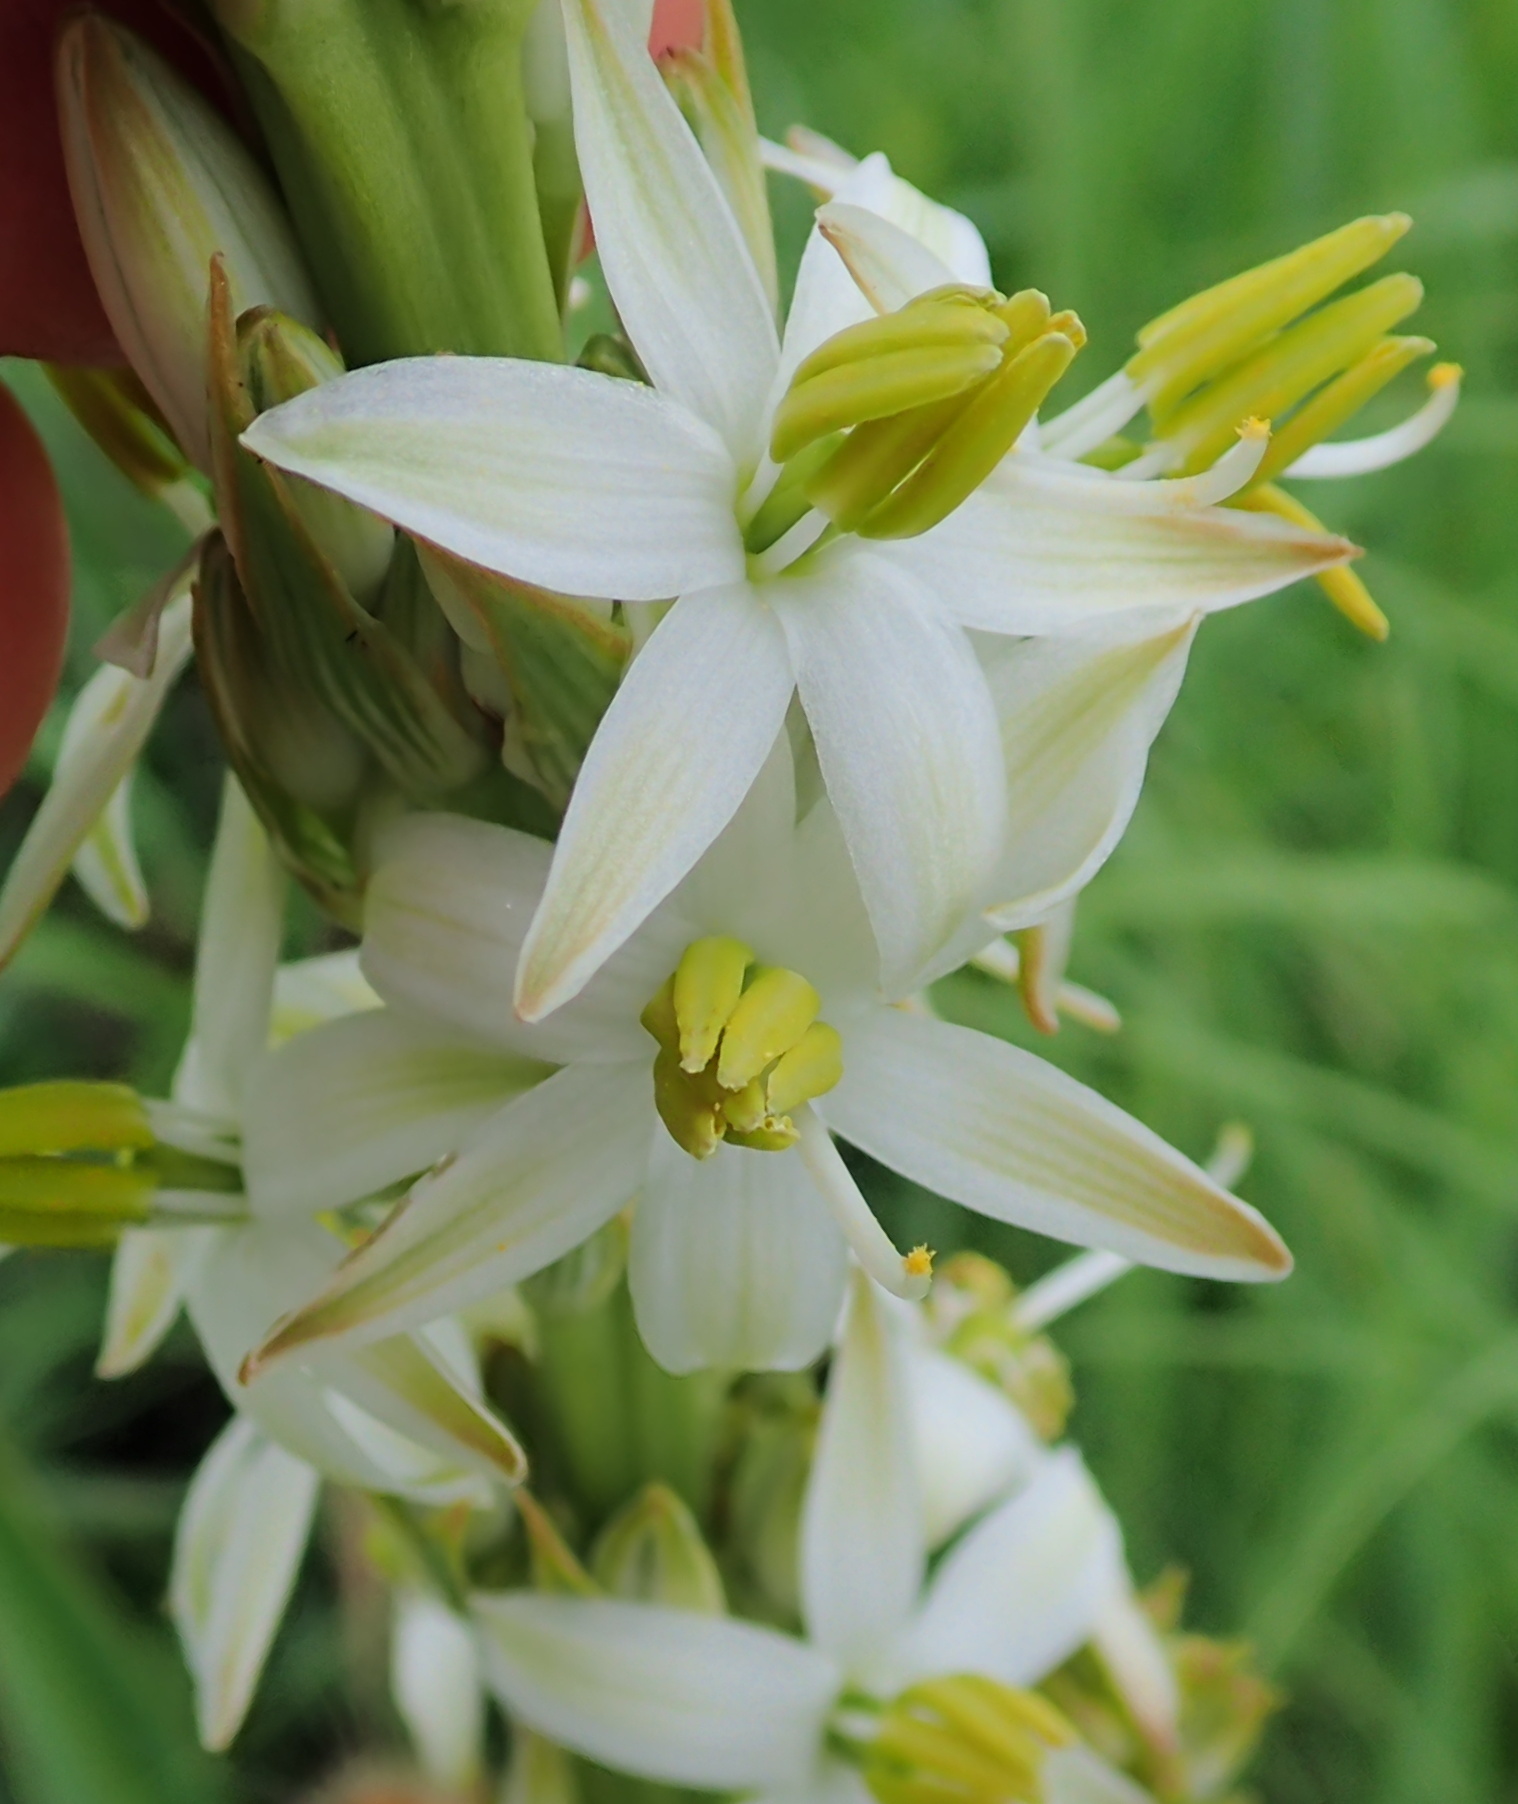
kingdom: Plantae
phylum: Tracheophyta
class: Liliopsida
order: Asparagales
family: Asparagaceae
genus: Chlorophytum
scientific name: Chlorophytum bowkeri
